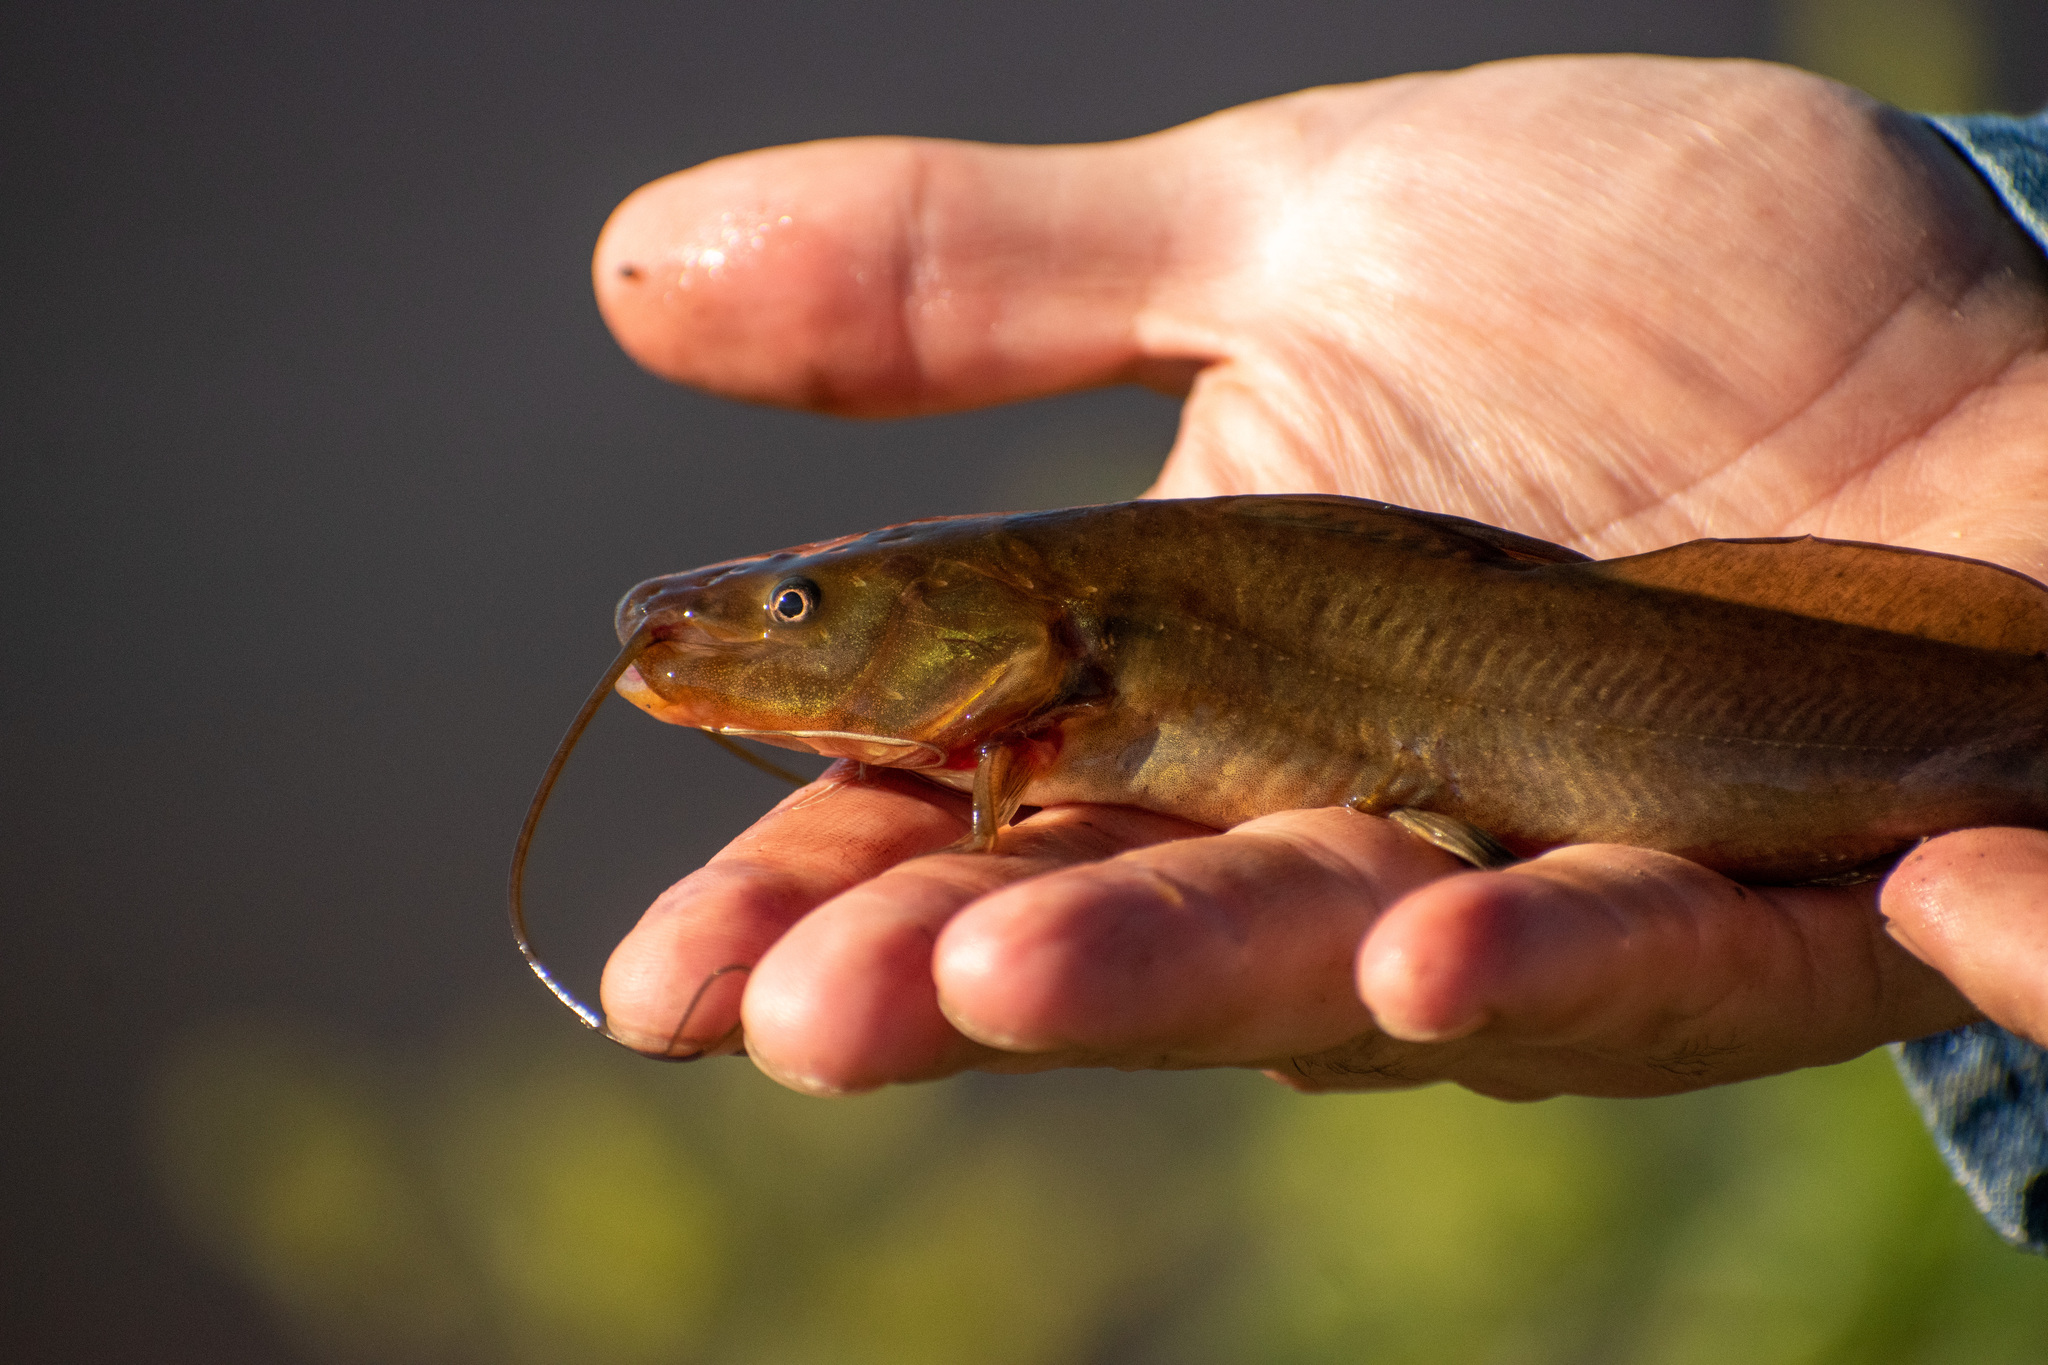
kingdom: Animalia
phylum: Chordata
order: Siluriformes
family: Heptapteridae
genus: Rhamdia
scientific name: Rhamdia quelen
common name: Catfish
